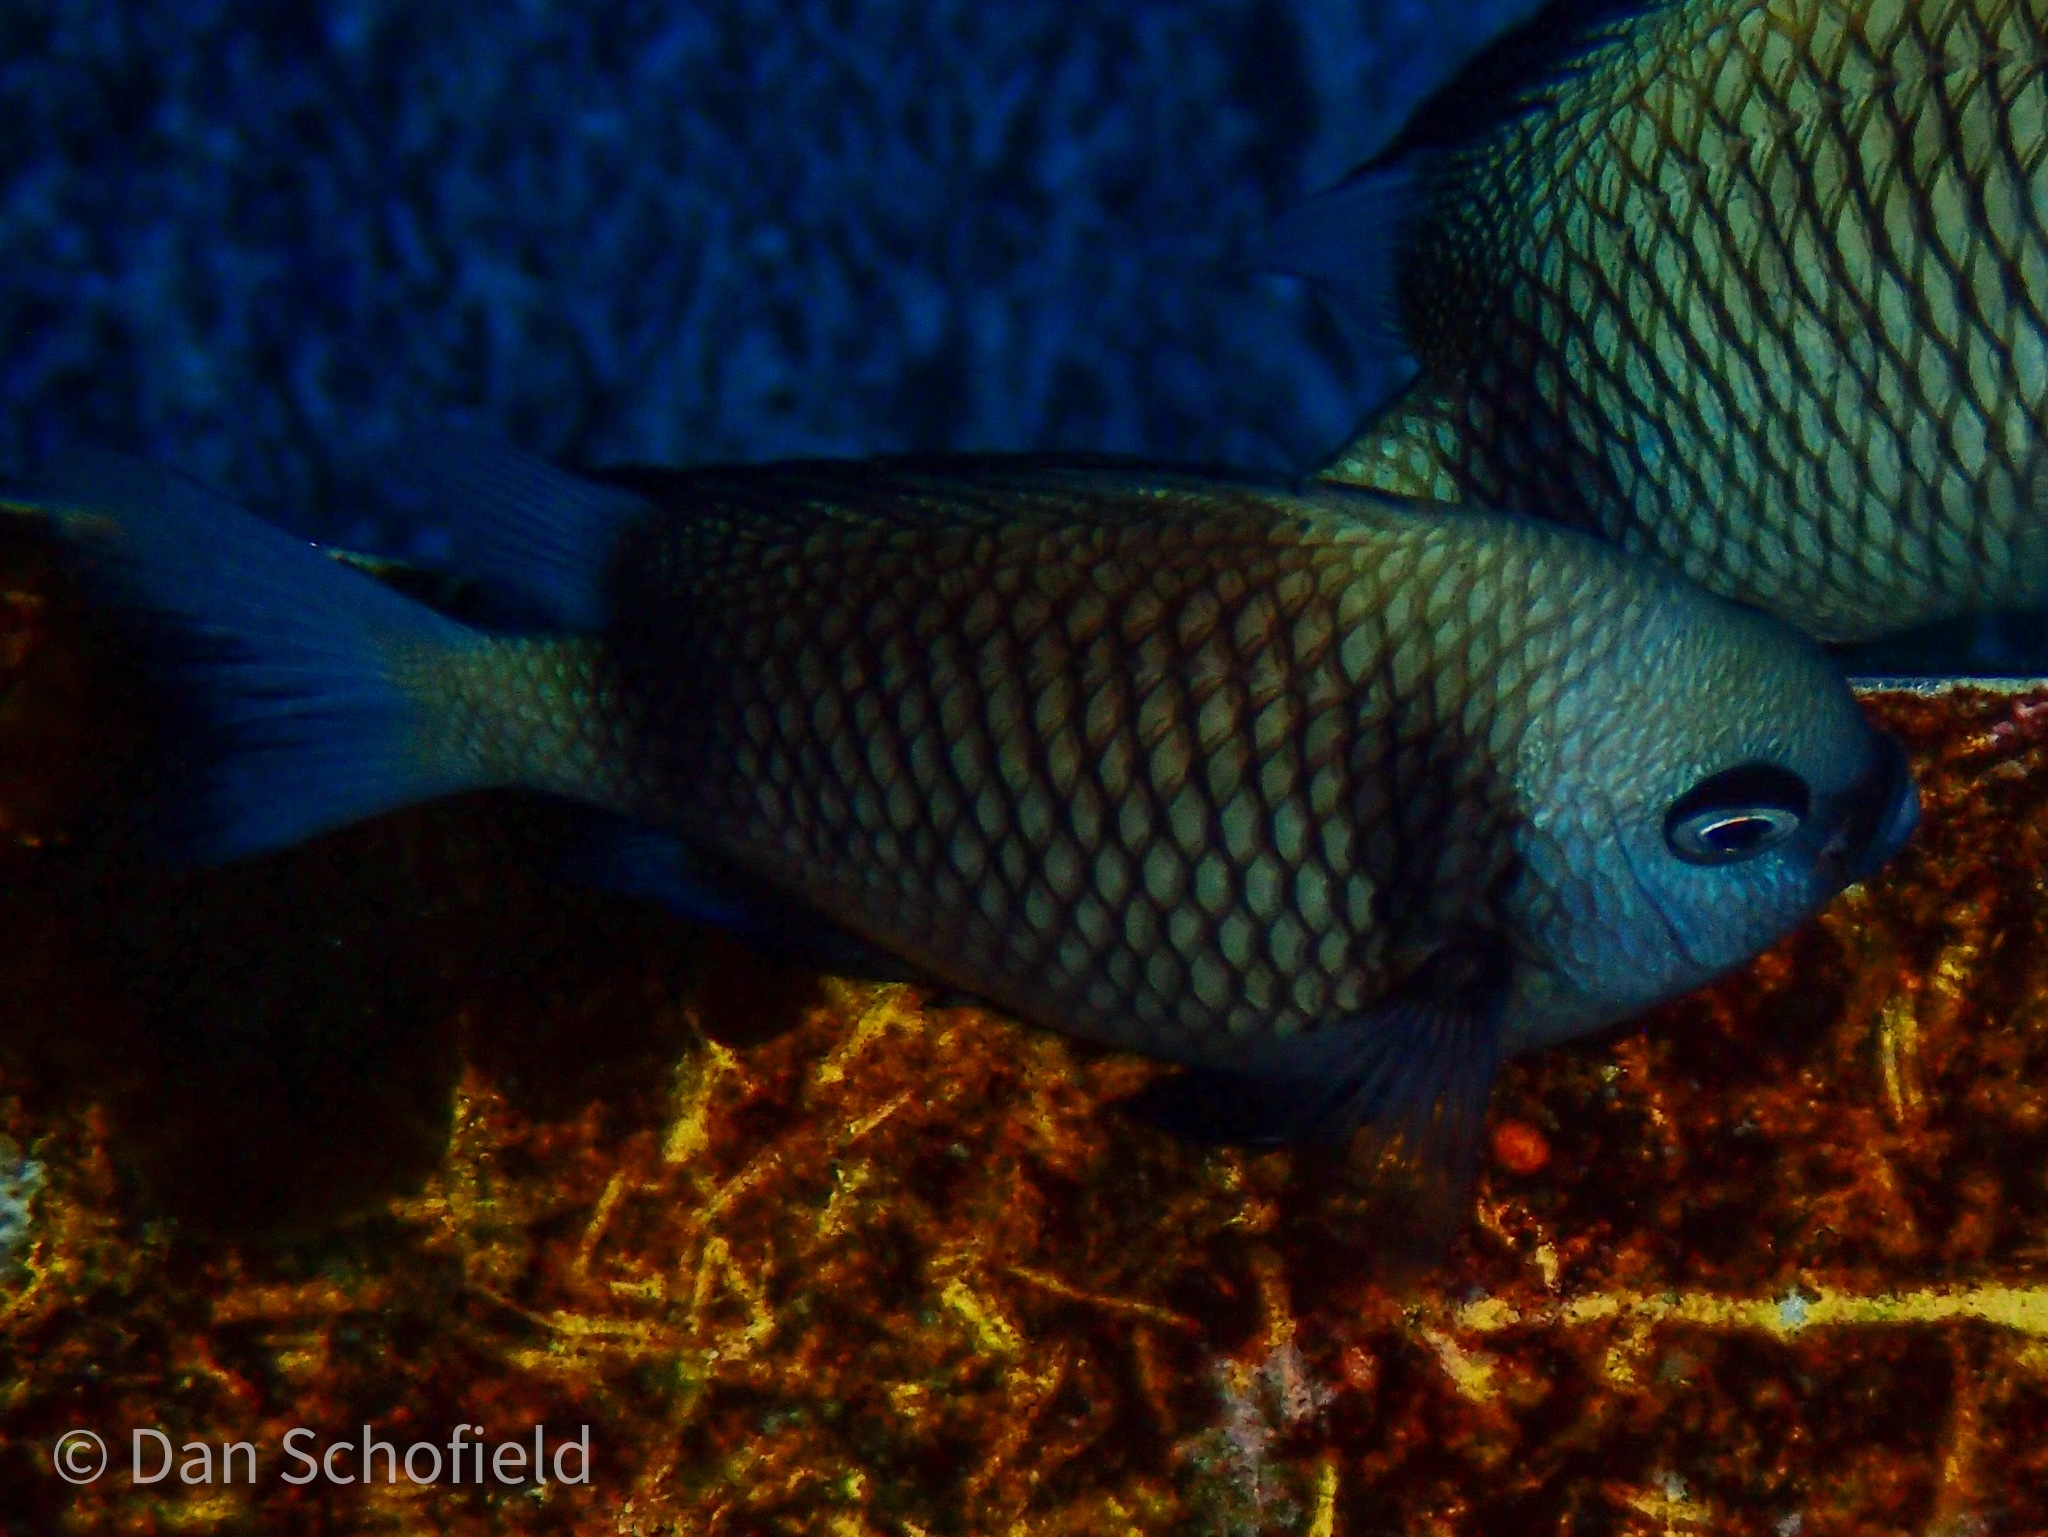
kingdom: Animalia
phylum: Chordata
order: Perciformes
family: Pomacentridae
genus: Dascyllus
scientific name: Dascyllus reticulatus
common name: Reticulated dascyllus
